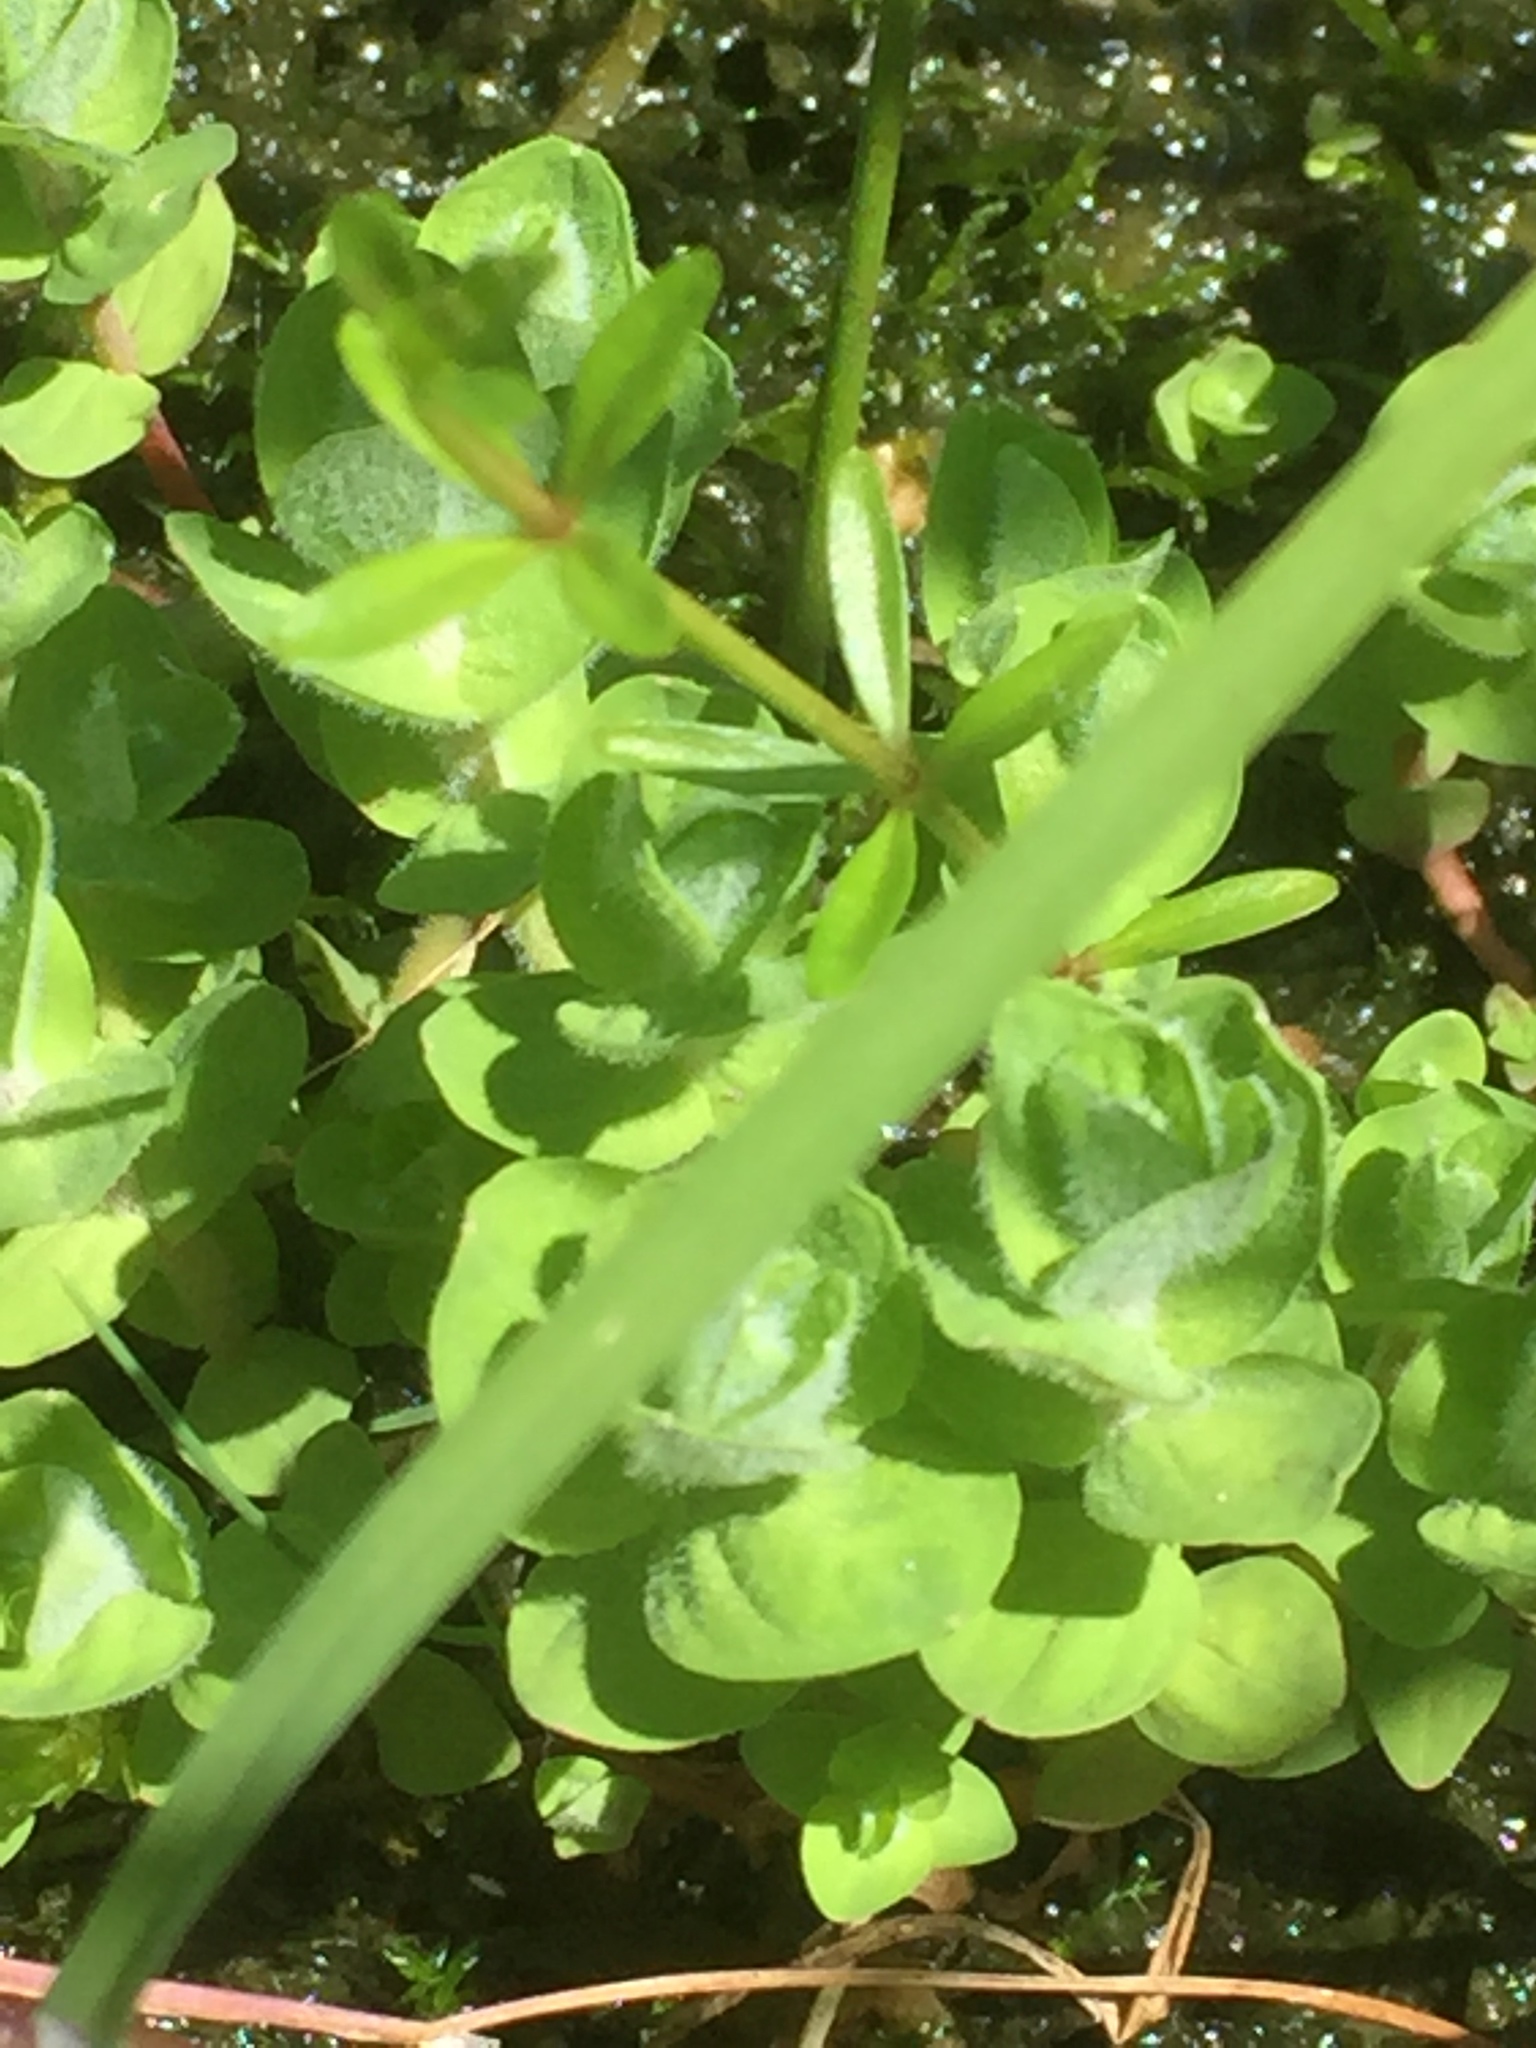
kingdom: Plantae
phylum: Tracheophyta
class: Magnoliopsida
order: Malpighiales
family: Hypericaceae
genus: Hypericum
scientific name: Hypericum elodes
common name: Marsh st. john's-wort
